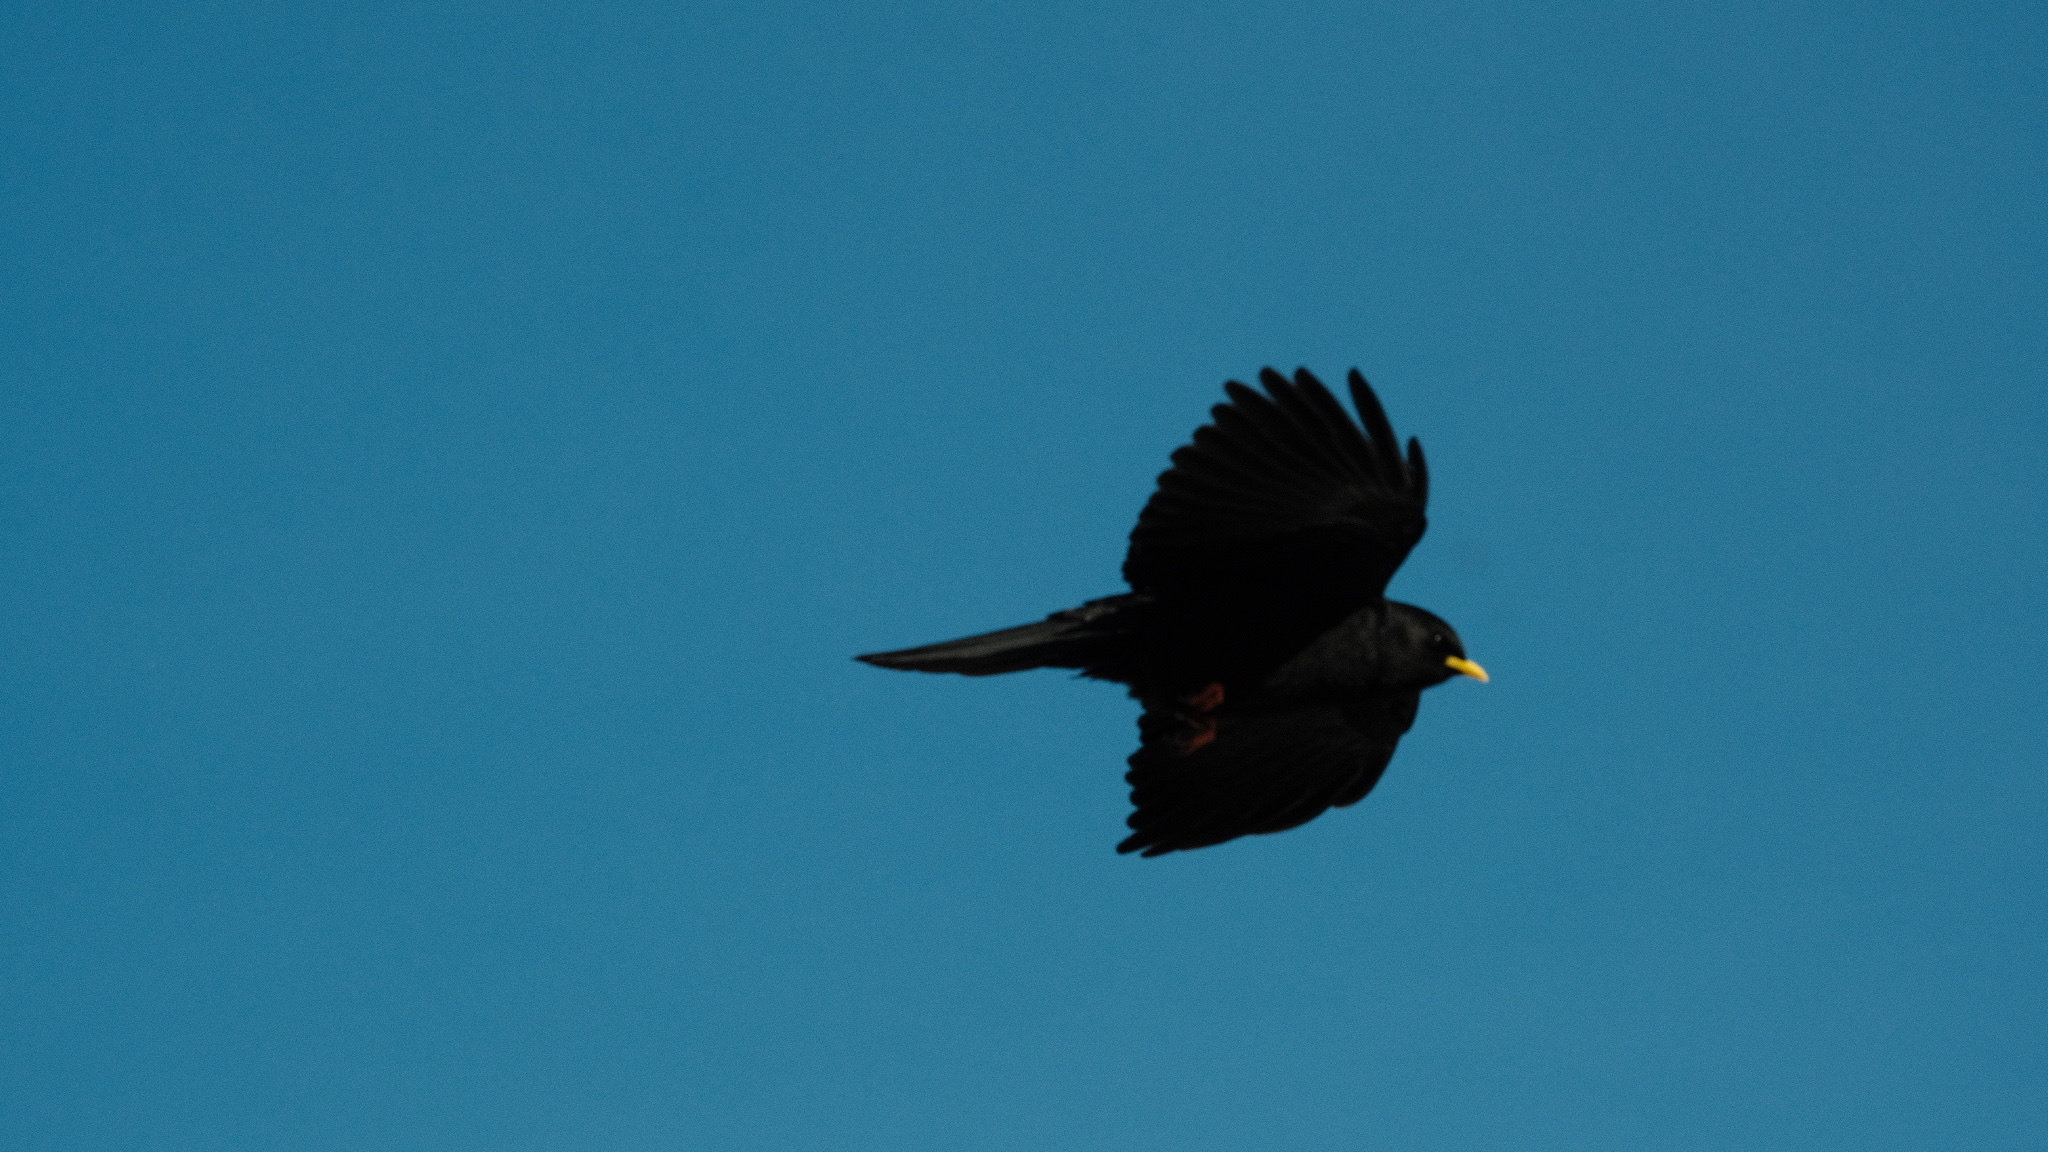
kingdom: Animalia
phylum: Chordata
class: Aves
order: Passeriformes
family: Corvidae
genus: Pyrrhocorax
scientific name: Pyrrhocorax graculus
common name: Alpine chough
